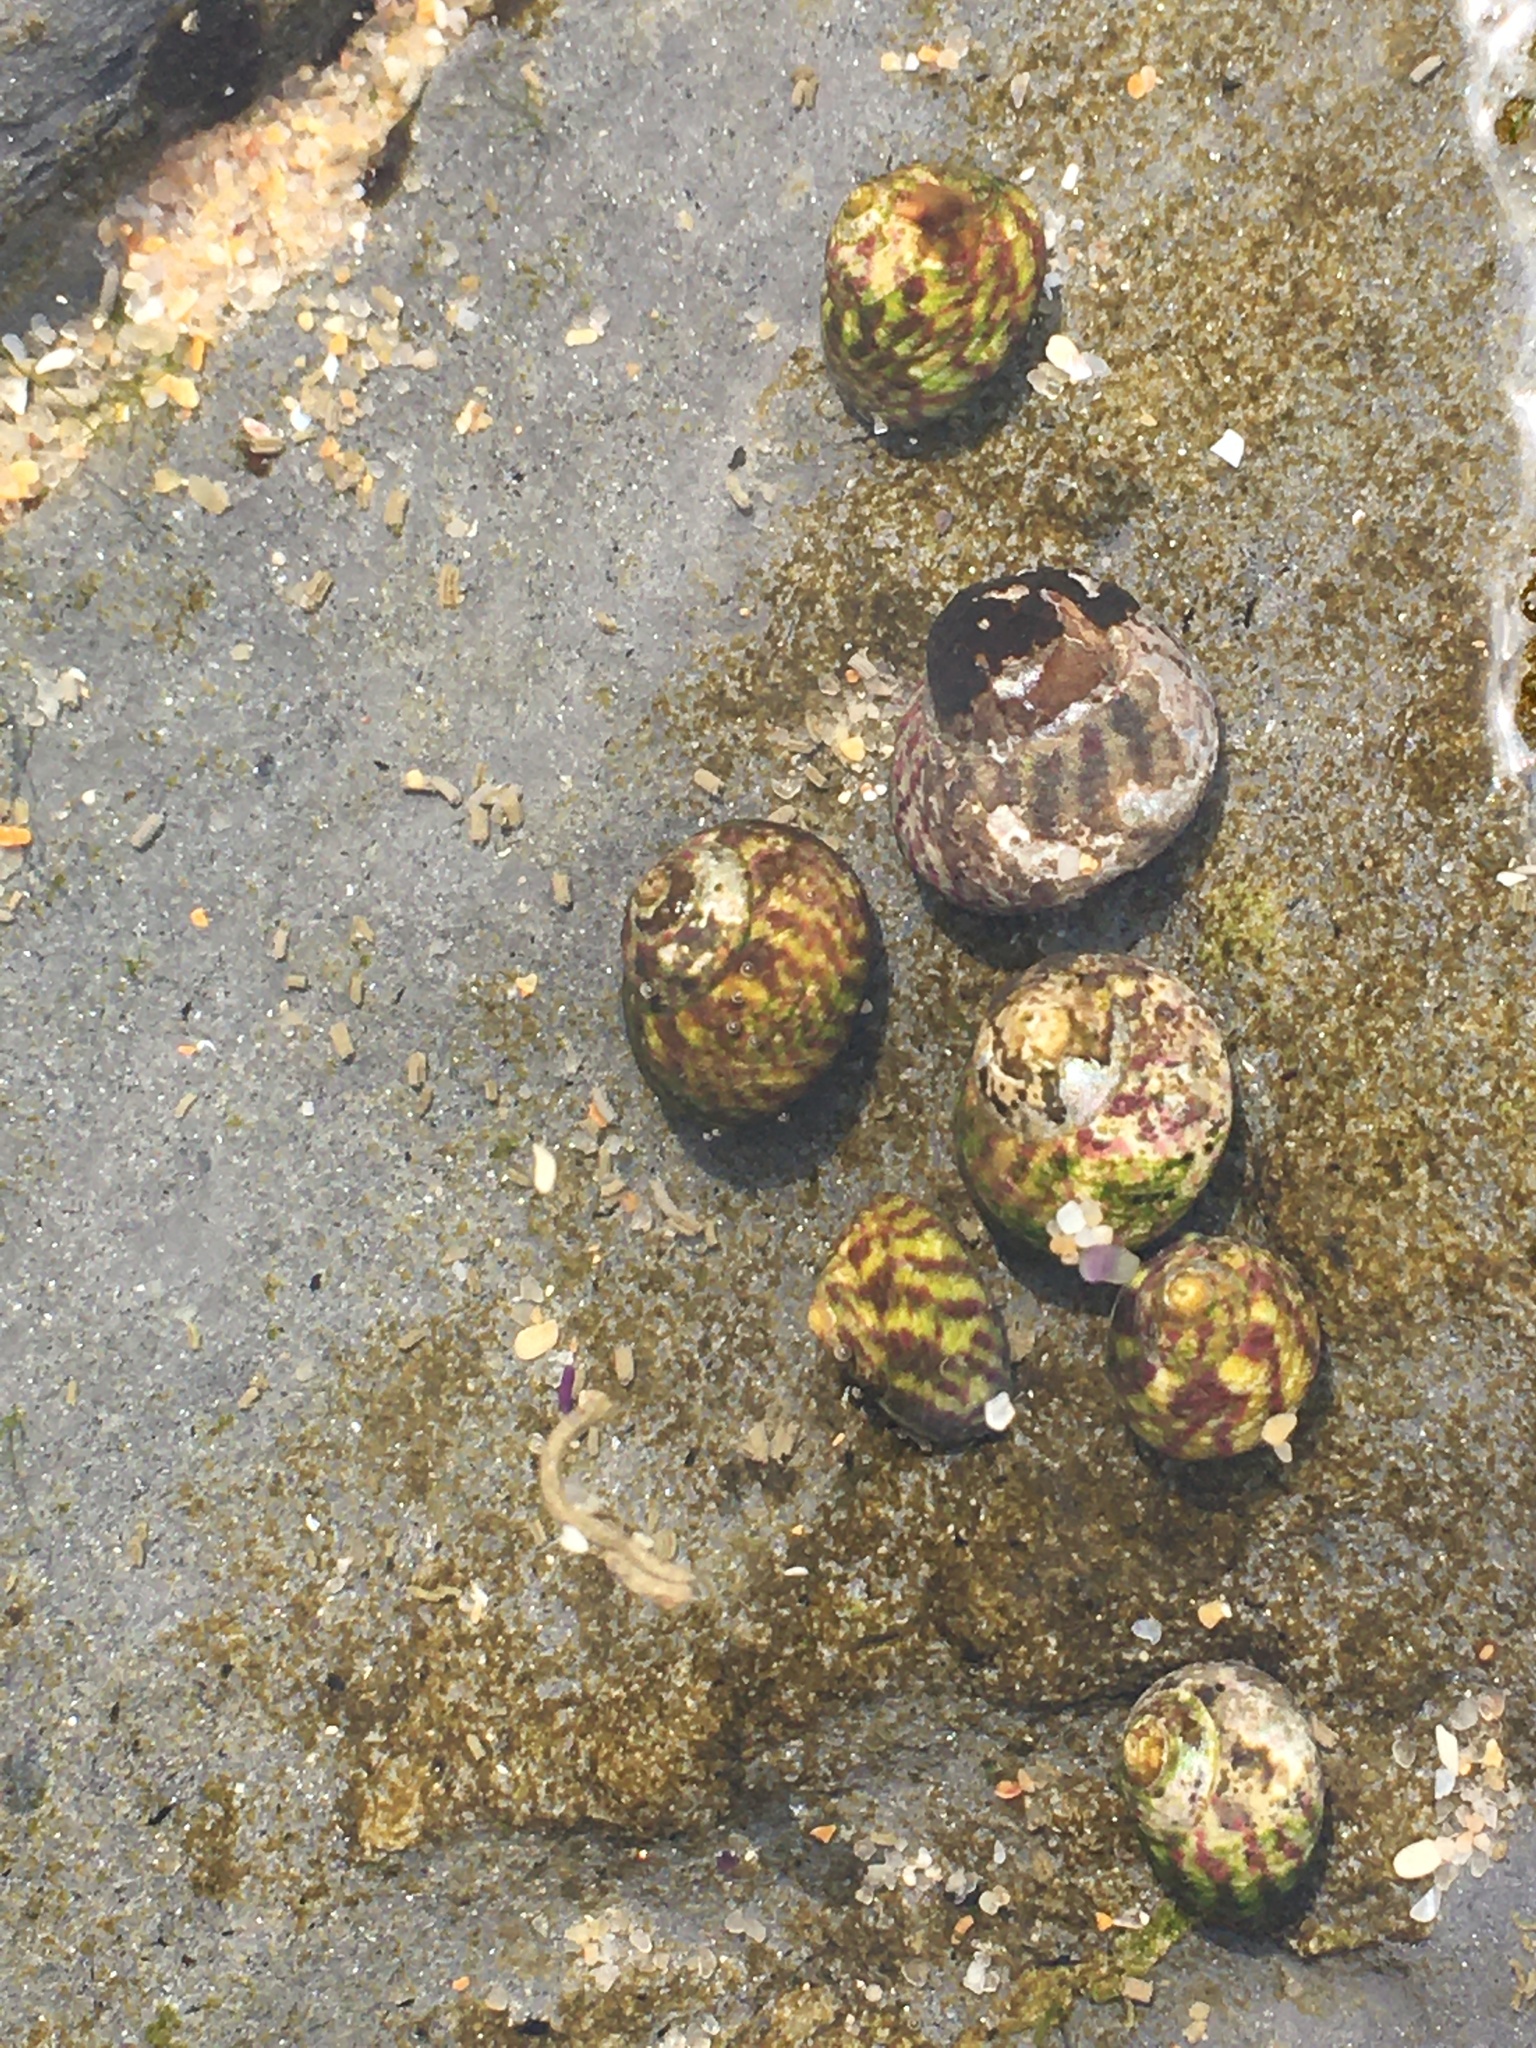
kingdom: Animalia
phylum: Mollusca
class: Gastropoda
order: Trochida
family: Trochidae
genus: Steromphala
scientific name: Steromphala umbilicalis
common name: Flat top shell
